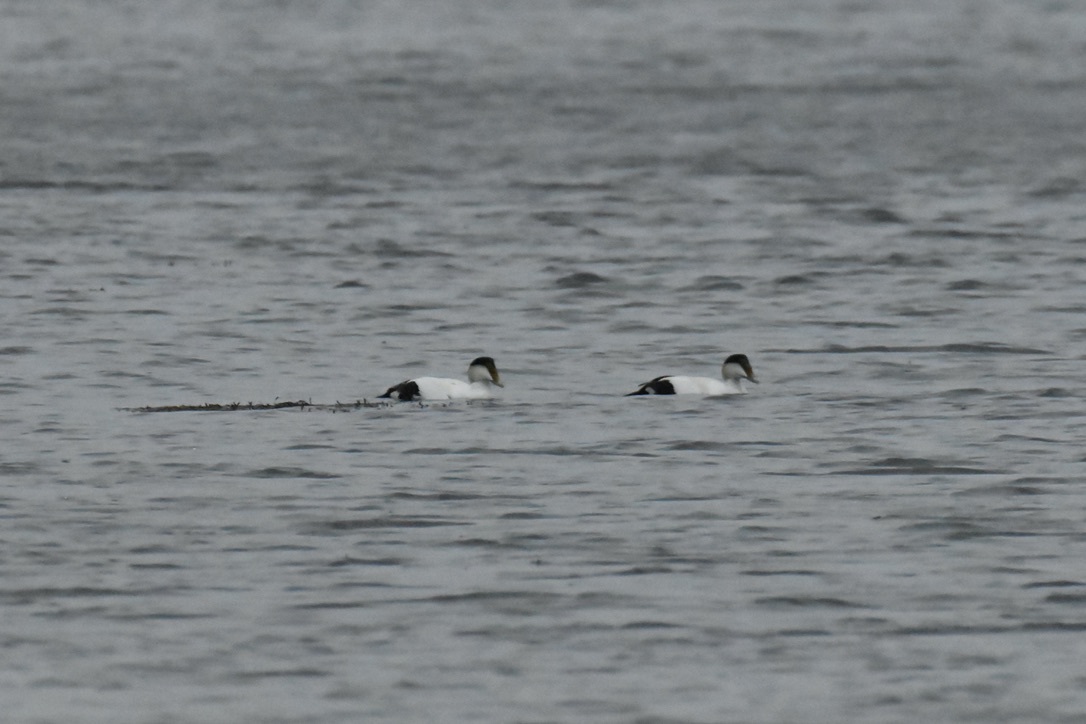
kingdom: Animalia
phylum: Chordata
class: Aves
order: Anseriformes
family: Anatidae
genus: Somateria
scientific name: Somateria mollissima
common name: Common eider
